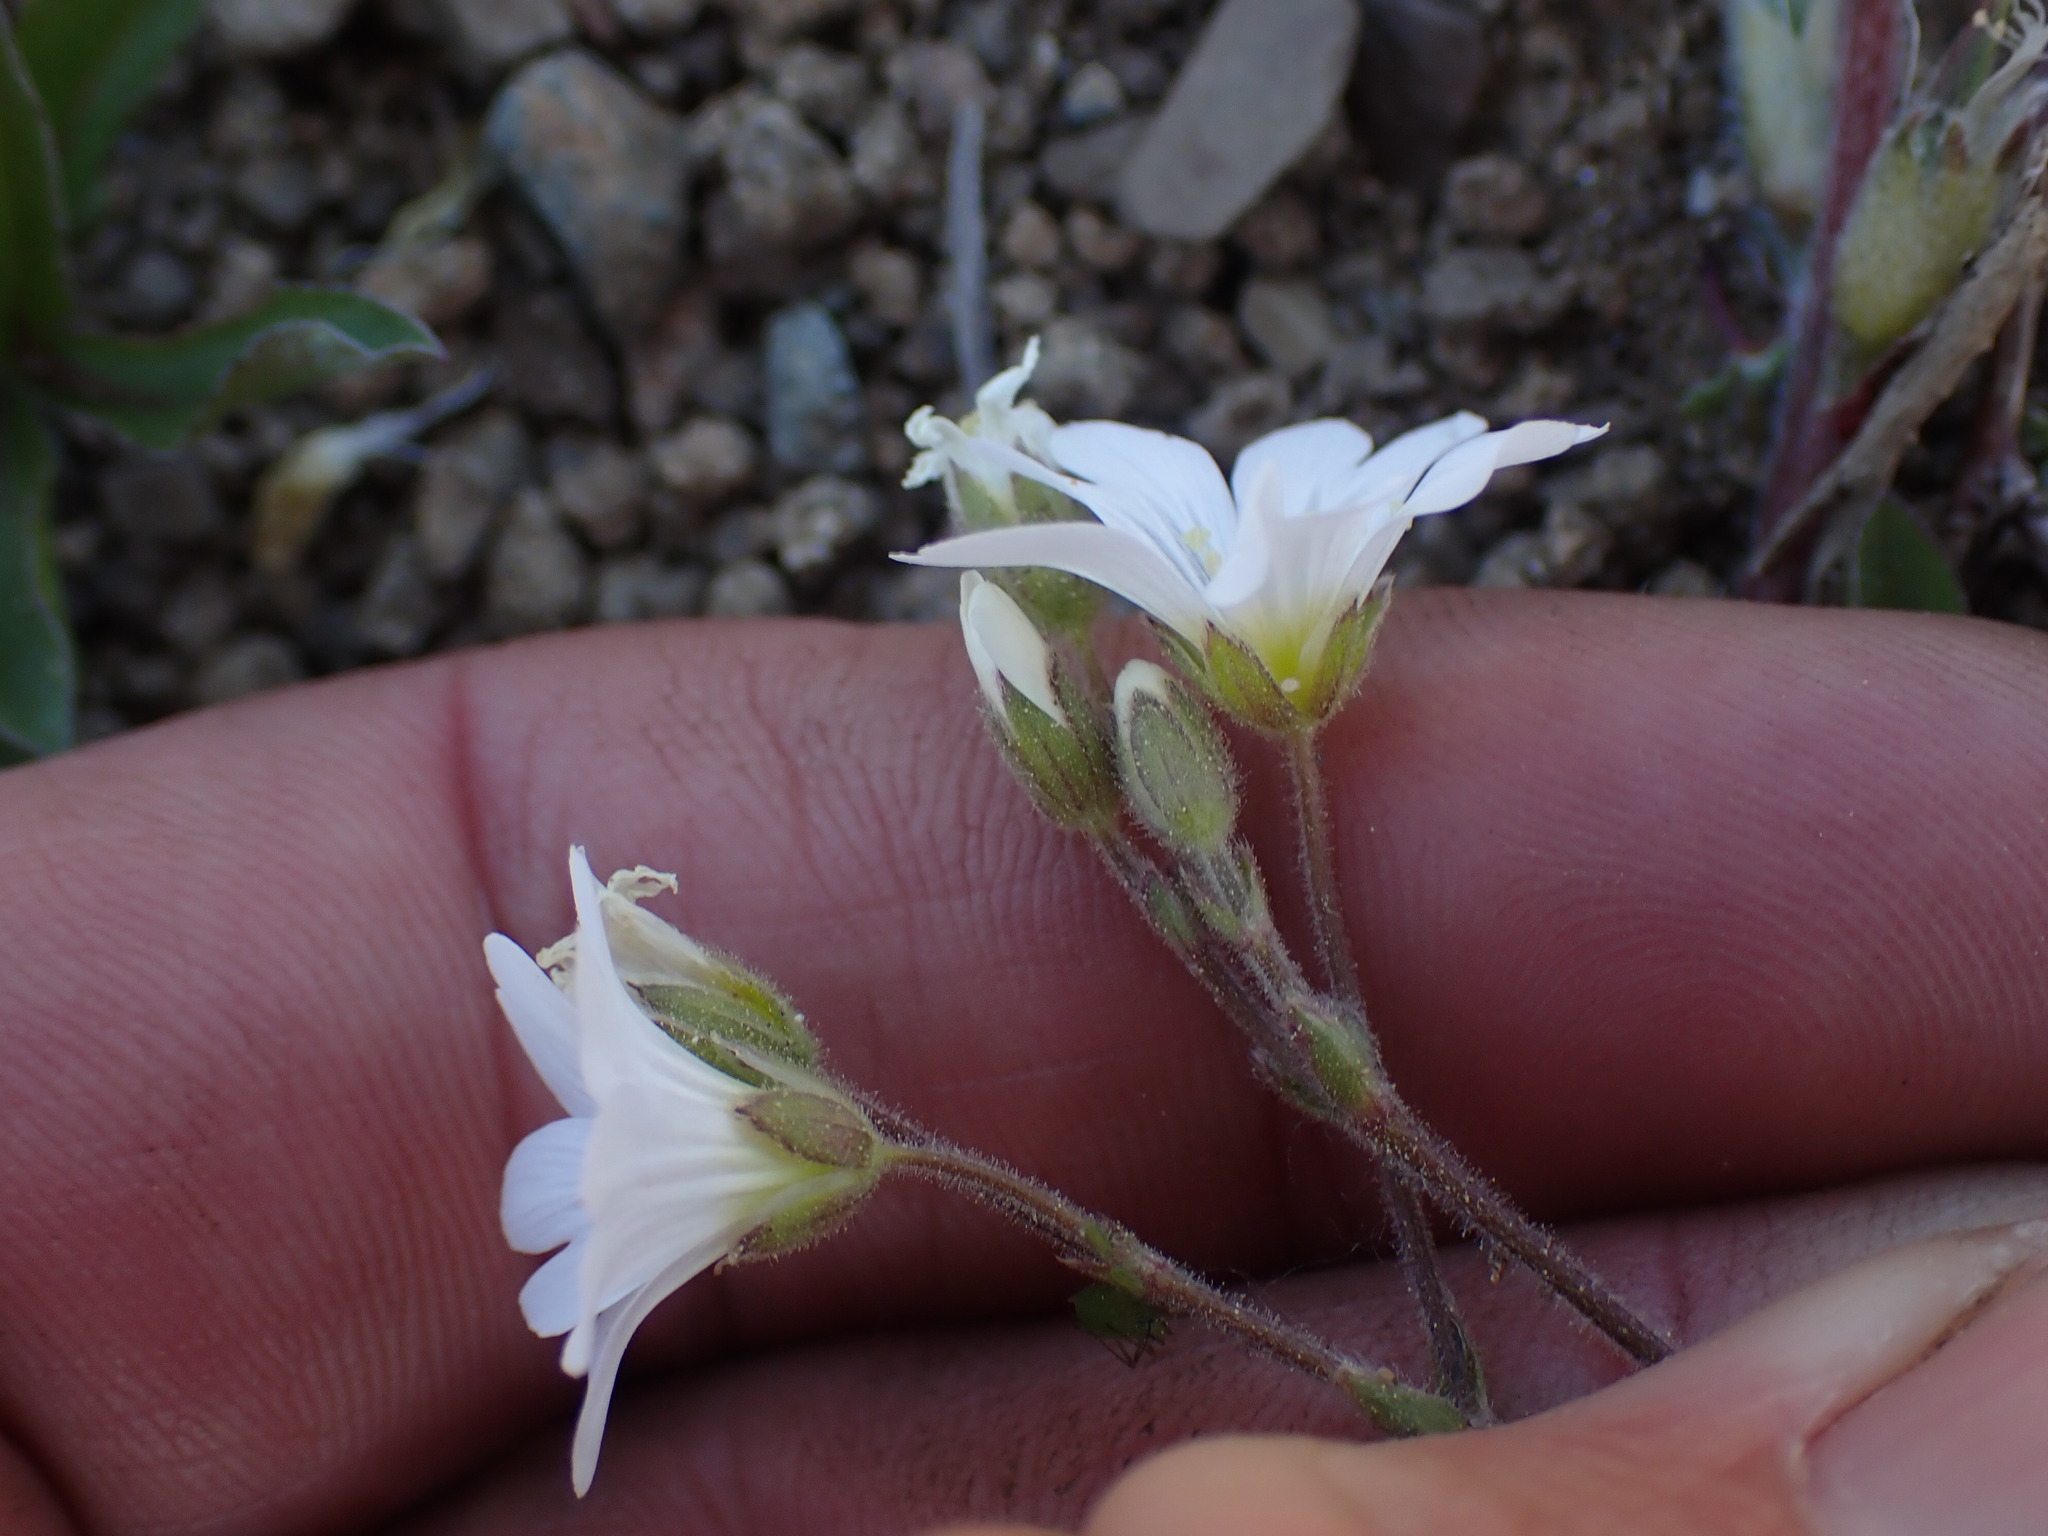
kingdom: Plantae
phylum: Tracheophyta
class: Magnoliopsida
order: Caryophyllales
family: Caryophyllaceae
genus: Cerastium
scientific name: Cerastium arvense
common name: Field mouse-ear
